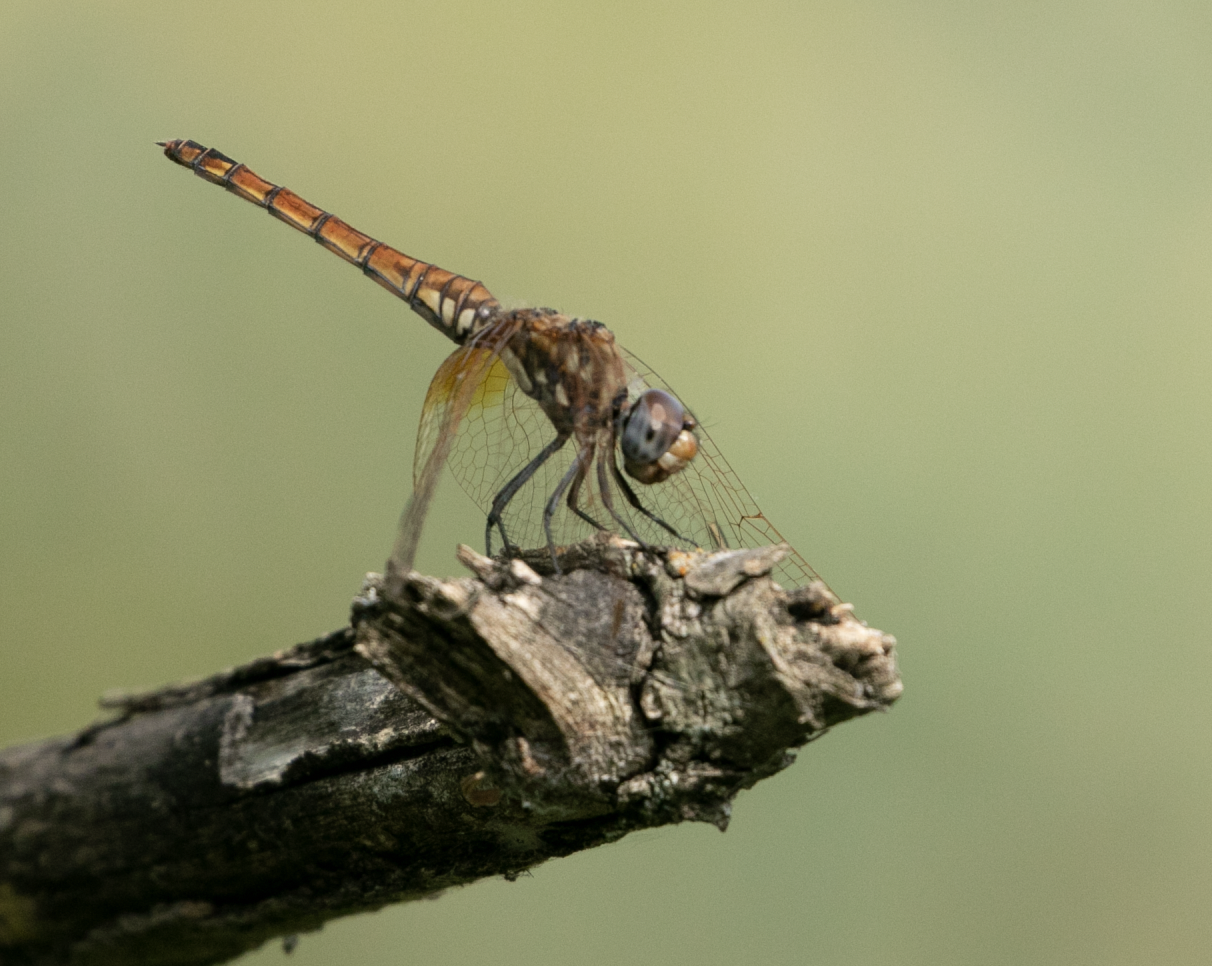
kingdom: Animalia
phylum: Arthropoda
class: Insecta
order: Odonata
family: Libellulidae
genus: Trithemis
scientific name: Trithemis annulata
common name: Violet dropwing
